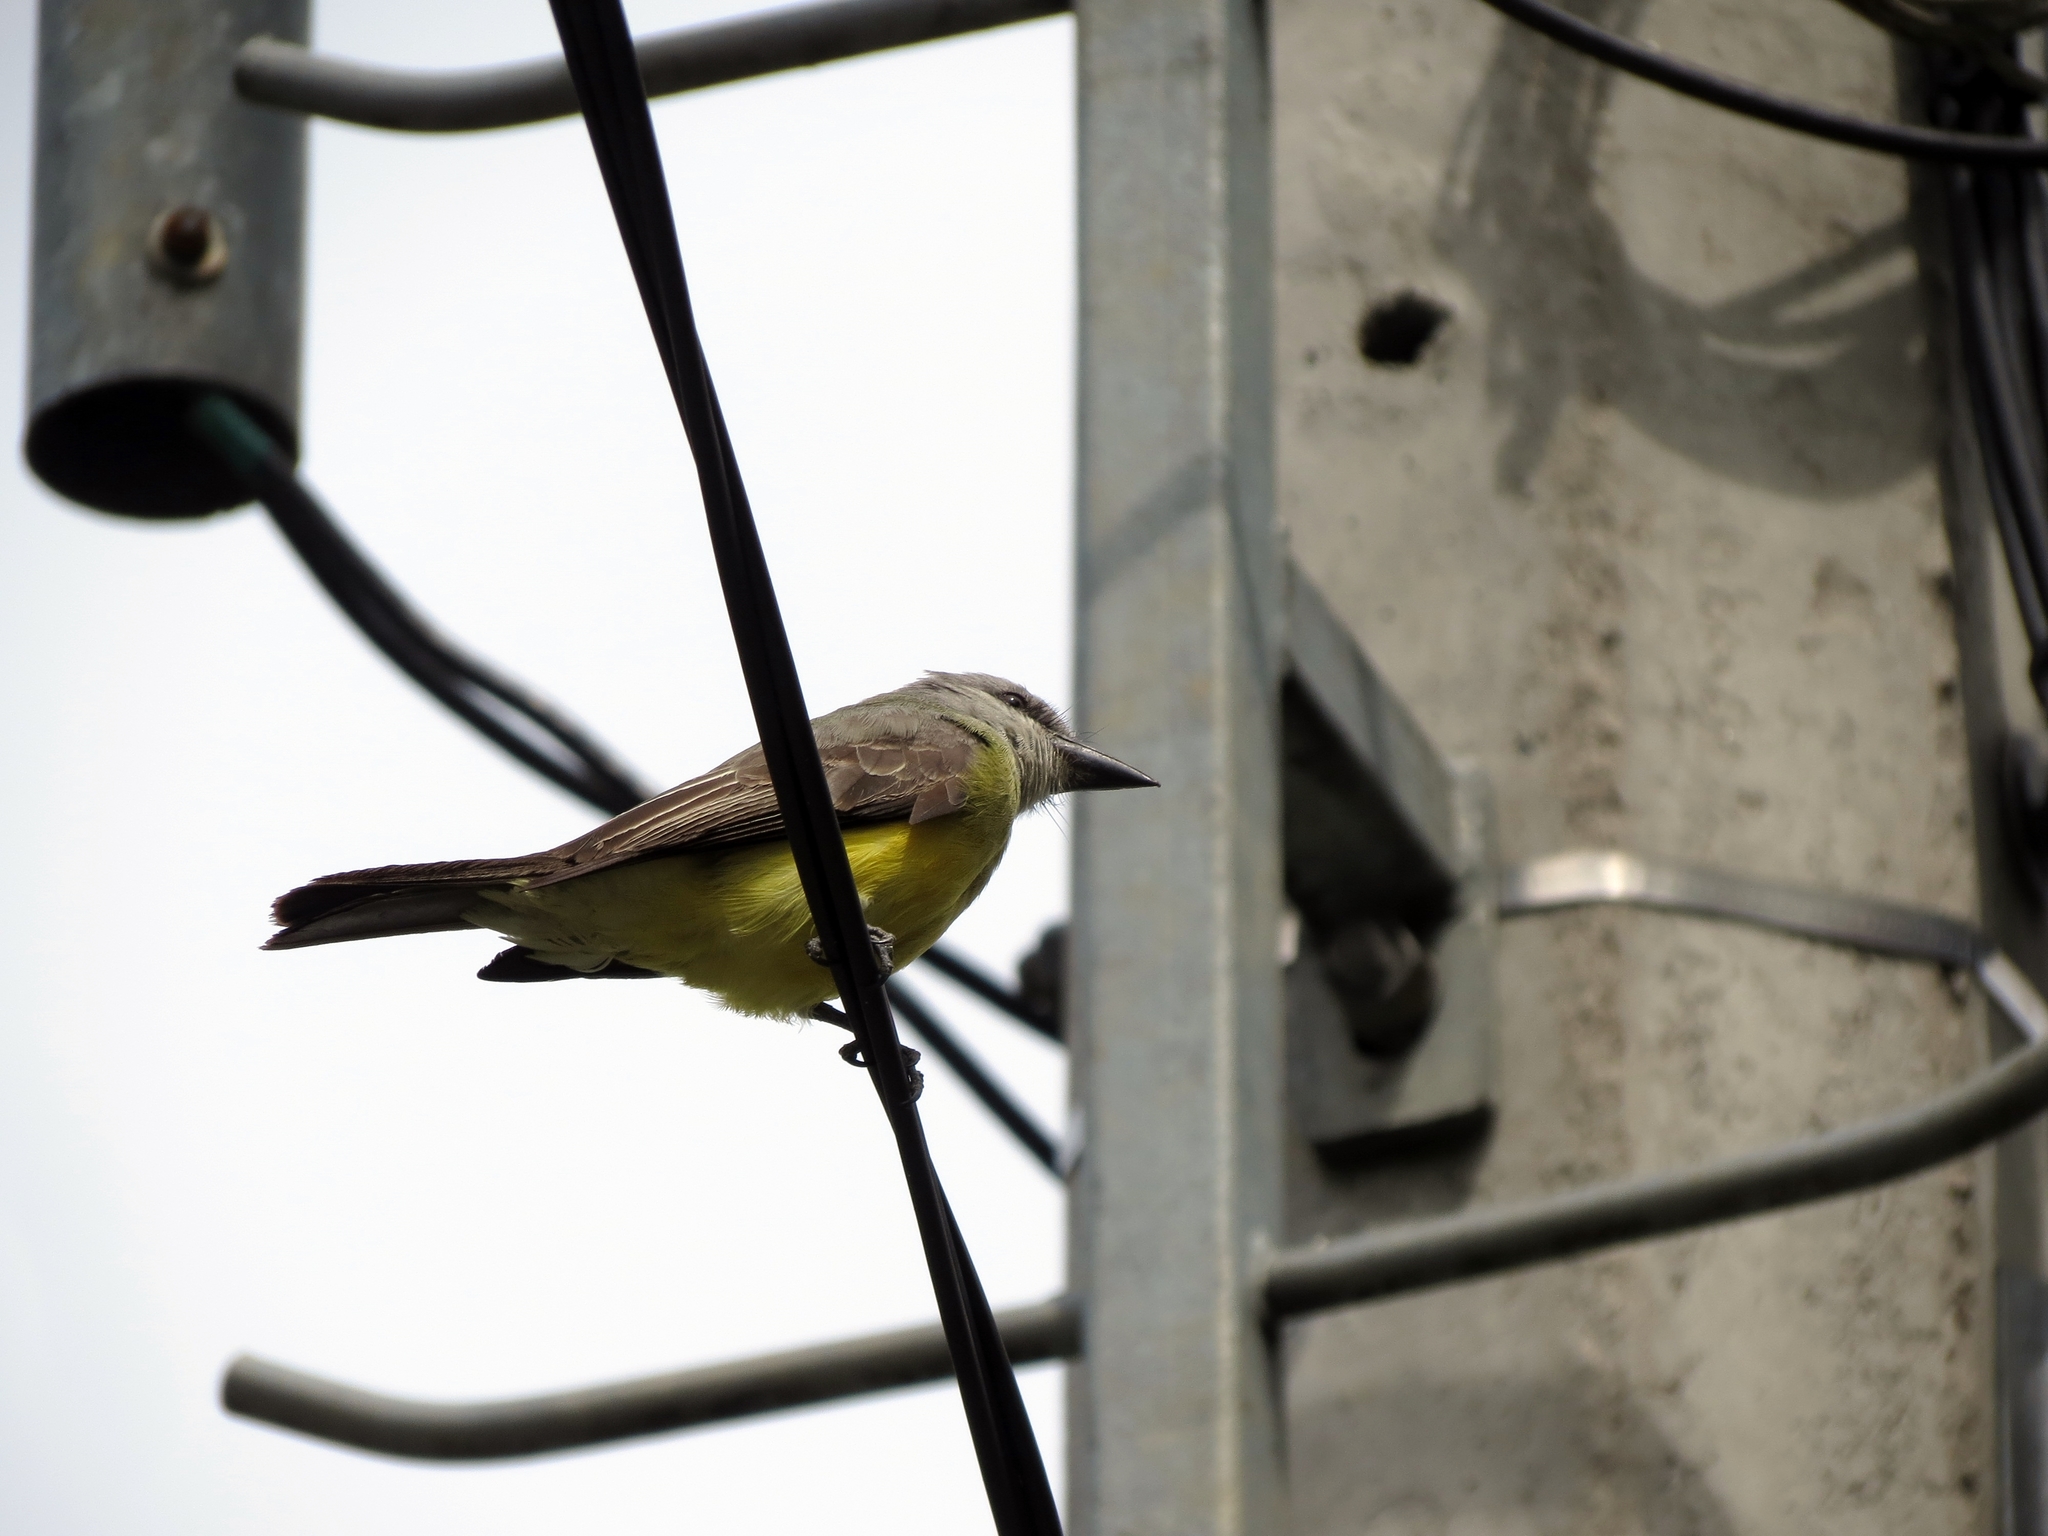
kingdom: Animalia
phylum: Chordata
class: Aves
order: Passeriformes
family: Tyrannidae
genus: Tyrannus
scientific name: Tyrannus melancholicus
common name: Tropical kingbird
